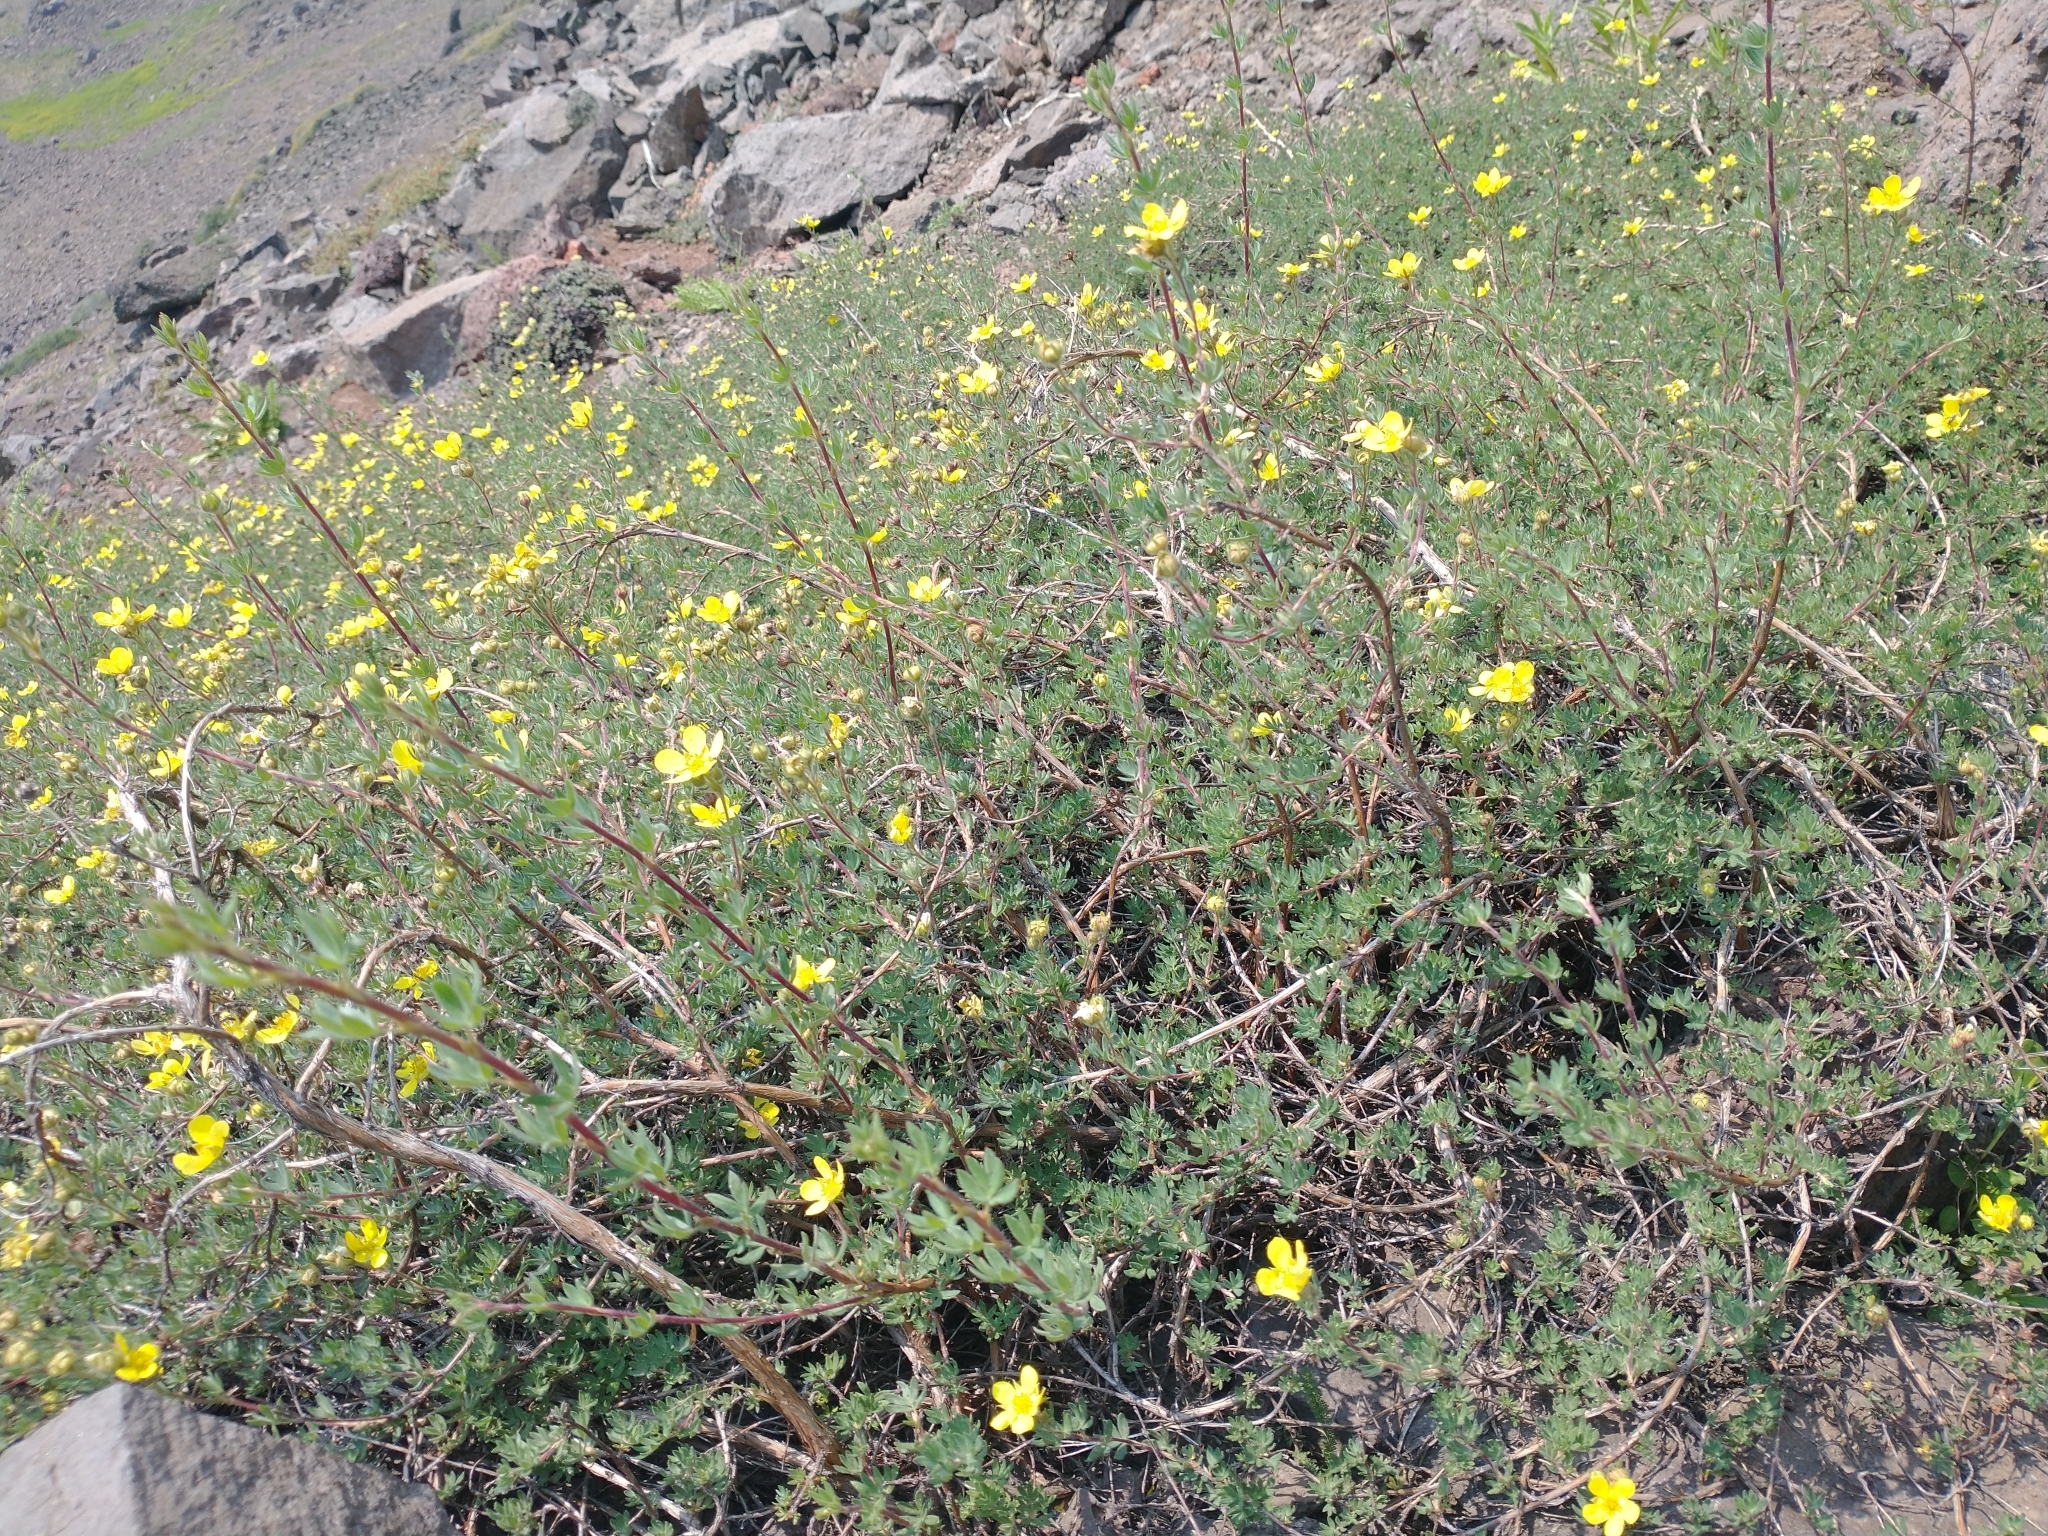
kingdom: Plantae
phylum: Tracheophyta
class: Magnoliopsida
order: Rosales
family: Rosaceae
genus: Dasiphora
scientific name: Dasiphora fruticosa
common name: Shrubby cinquefoil
